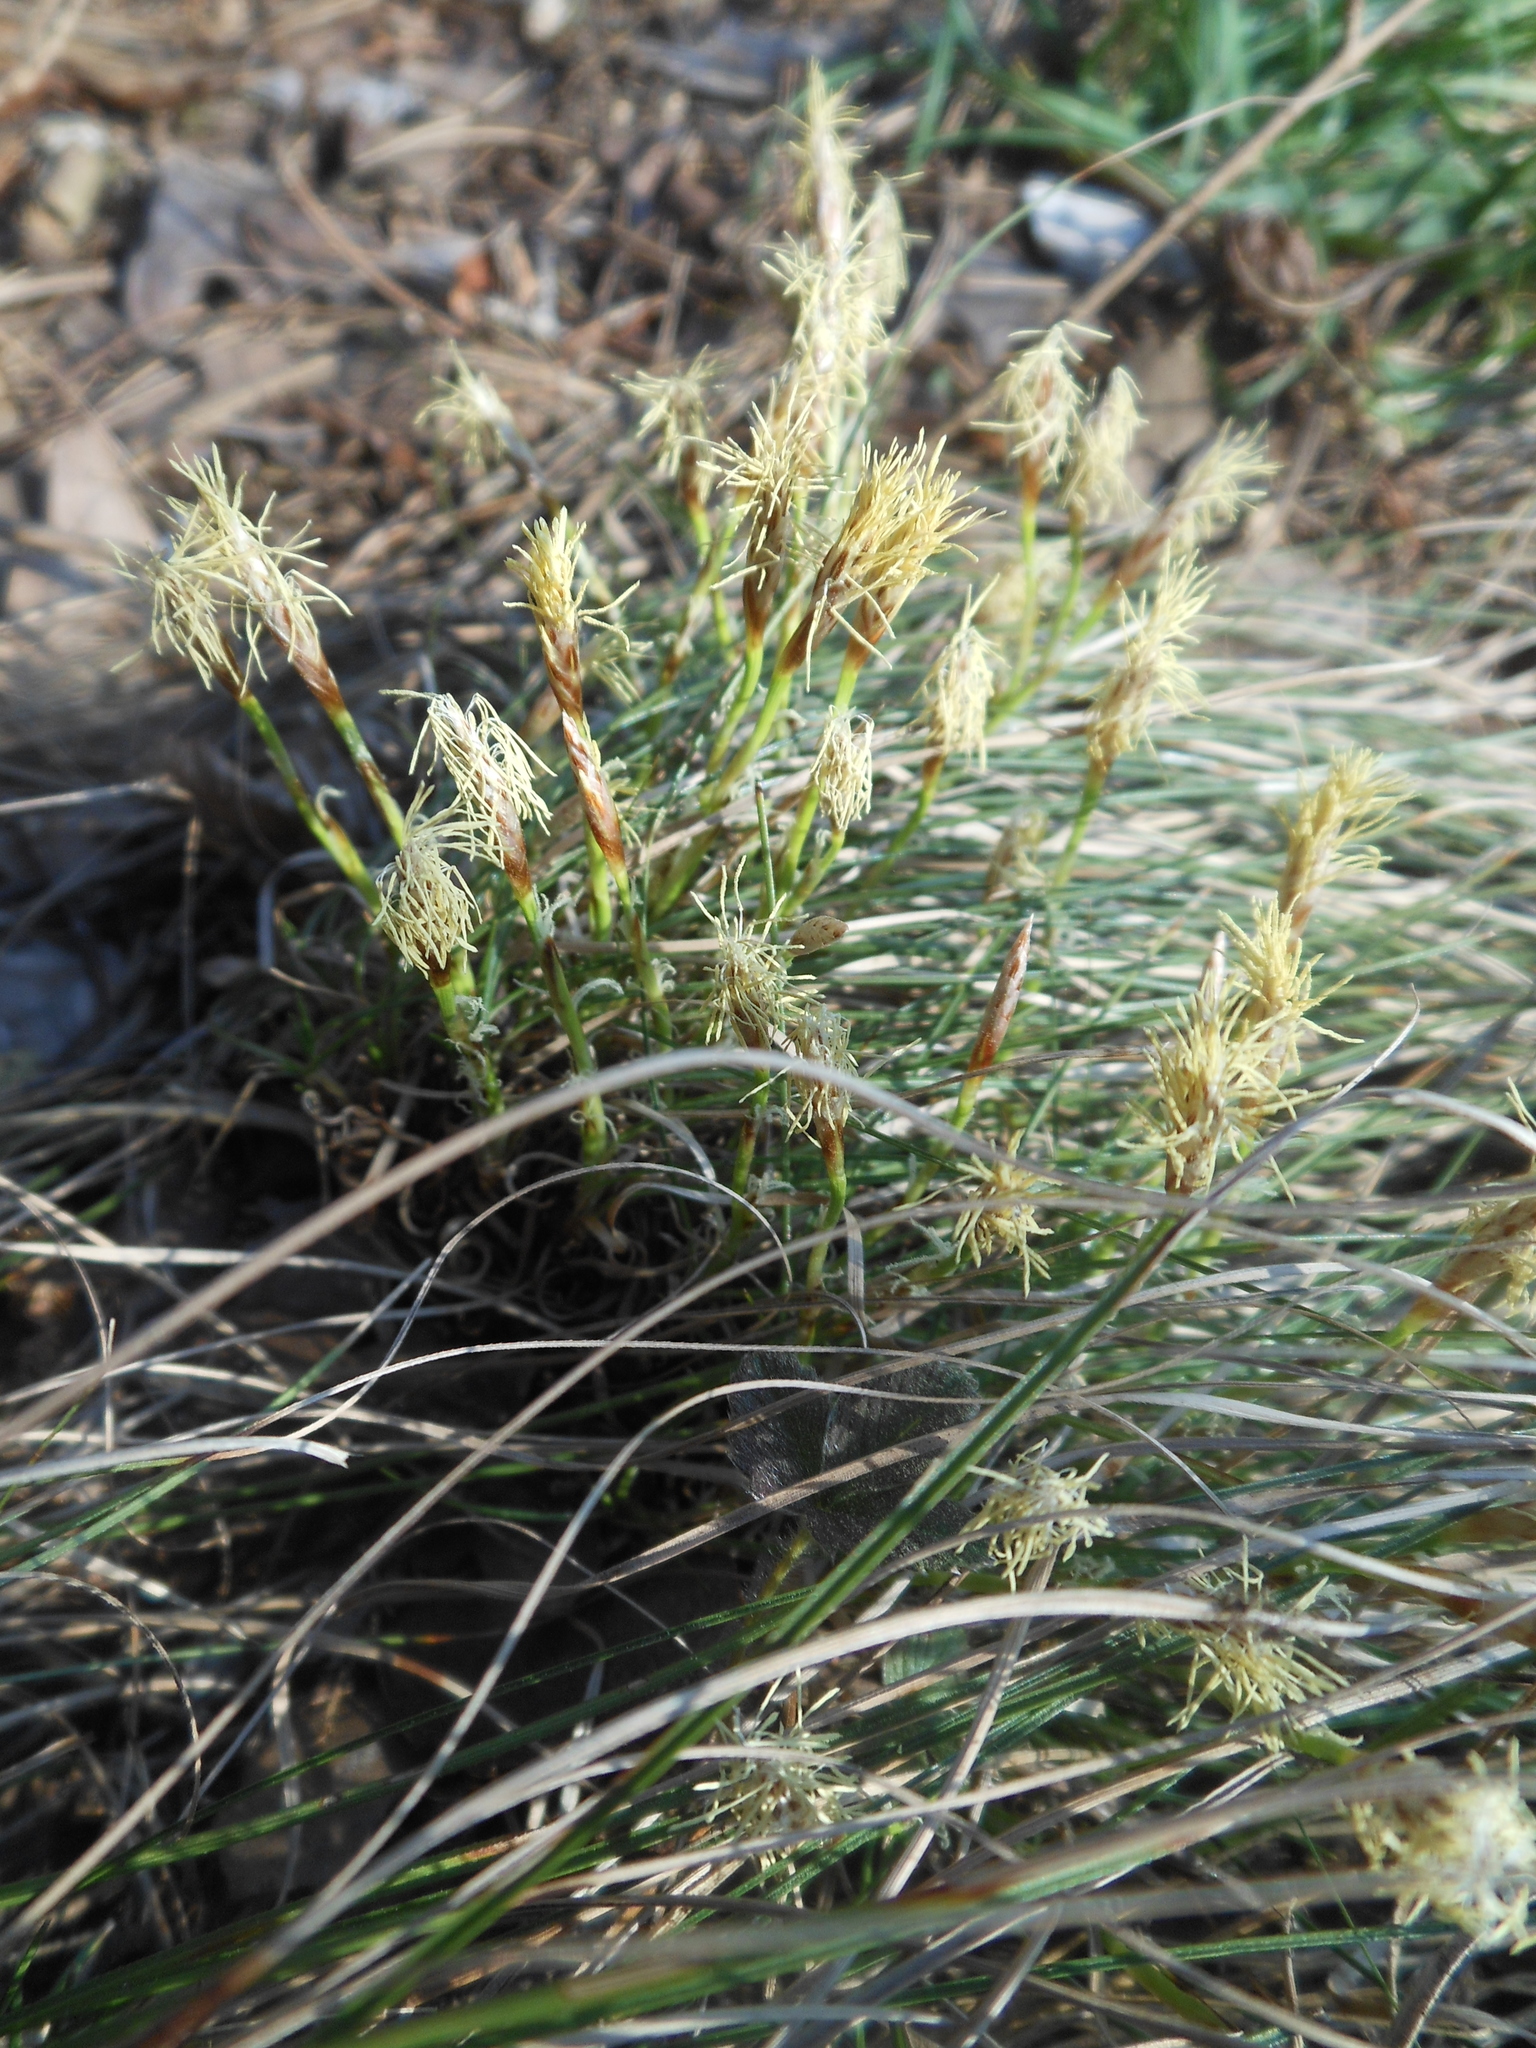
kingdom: Plantae
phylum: Tracheophyta
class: Liliopsida
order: Poales
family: Cyperaceae
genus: Carex
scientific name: Carex humilis
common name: Dwarf sedge
